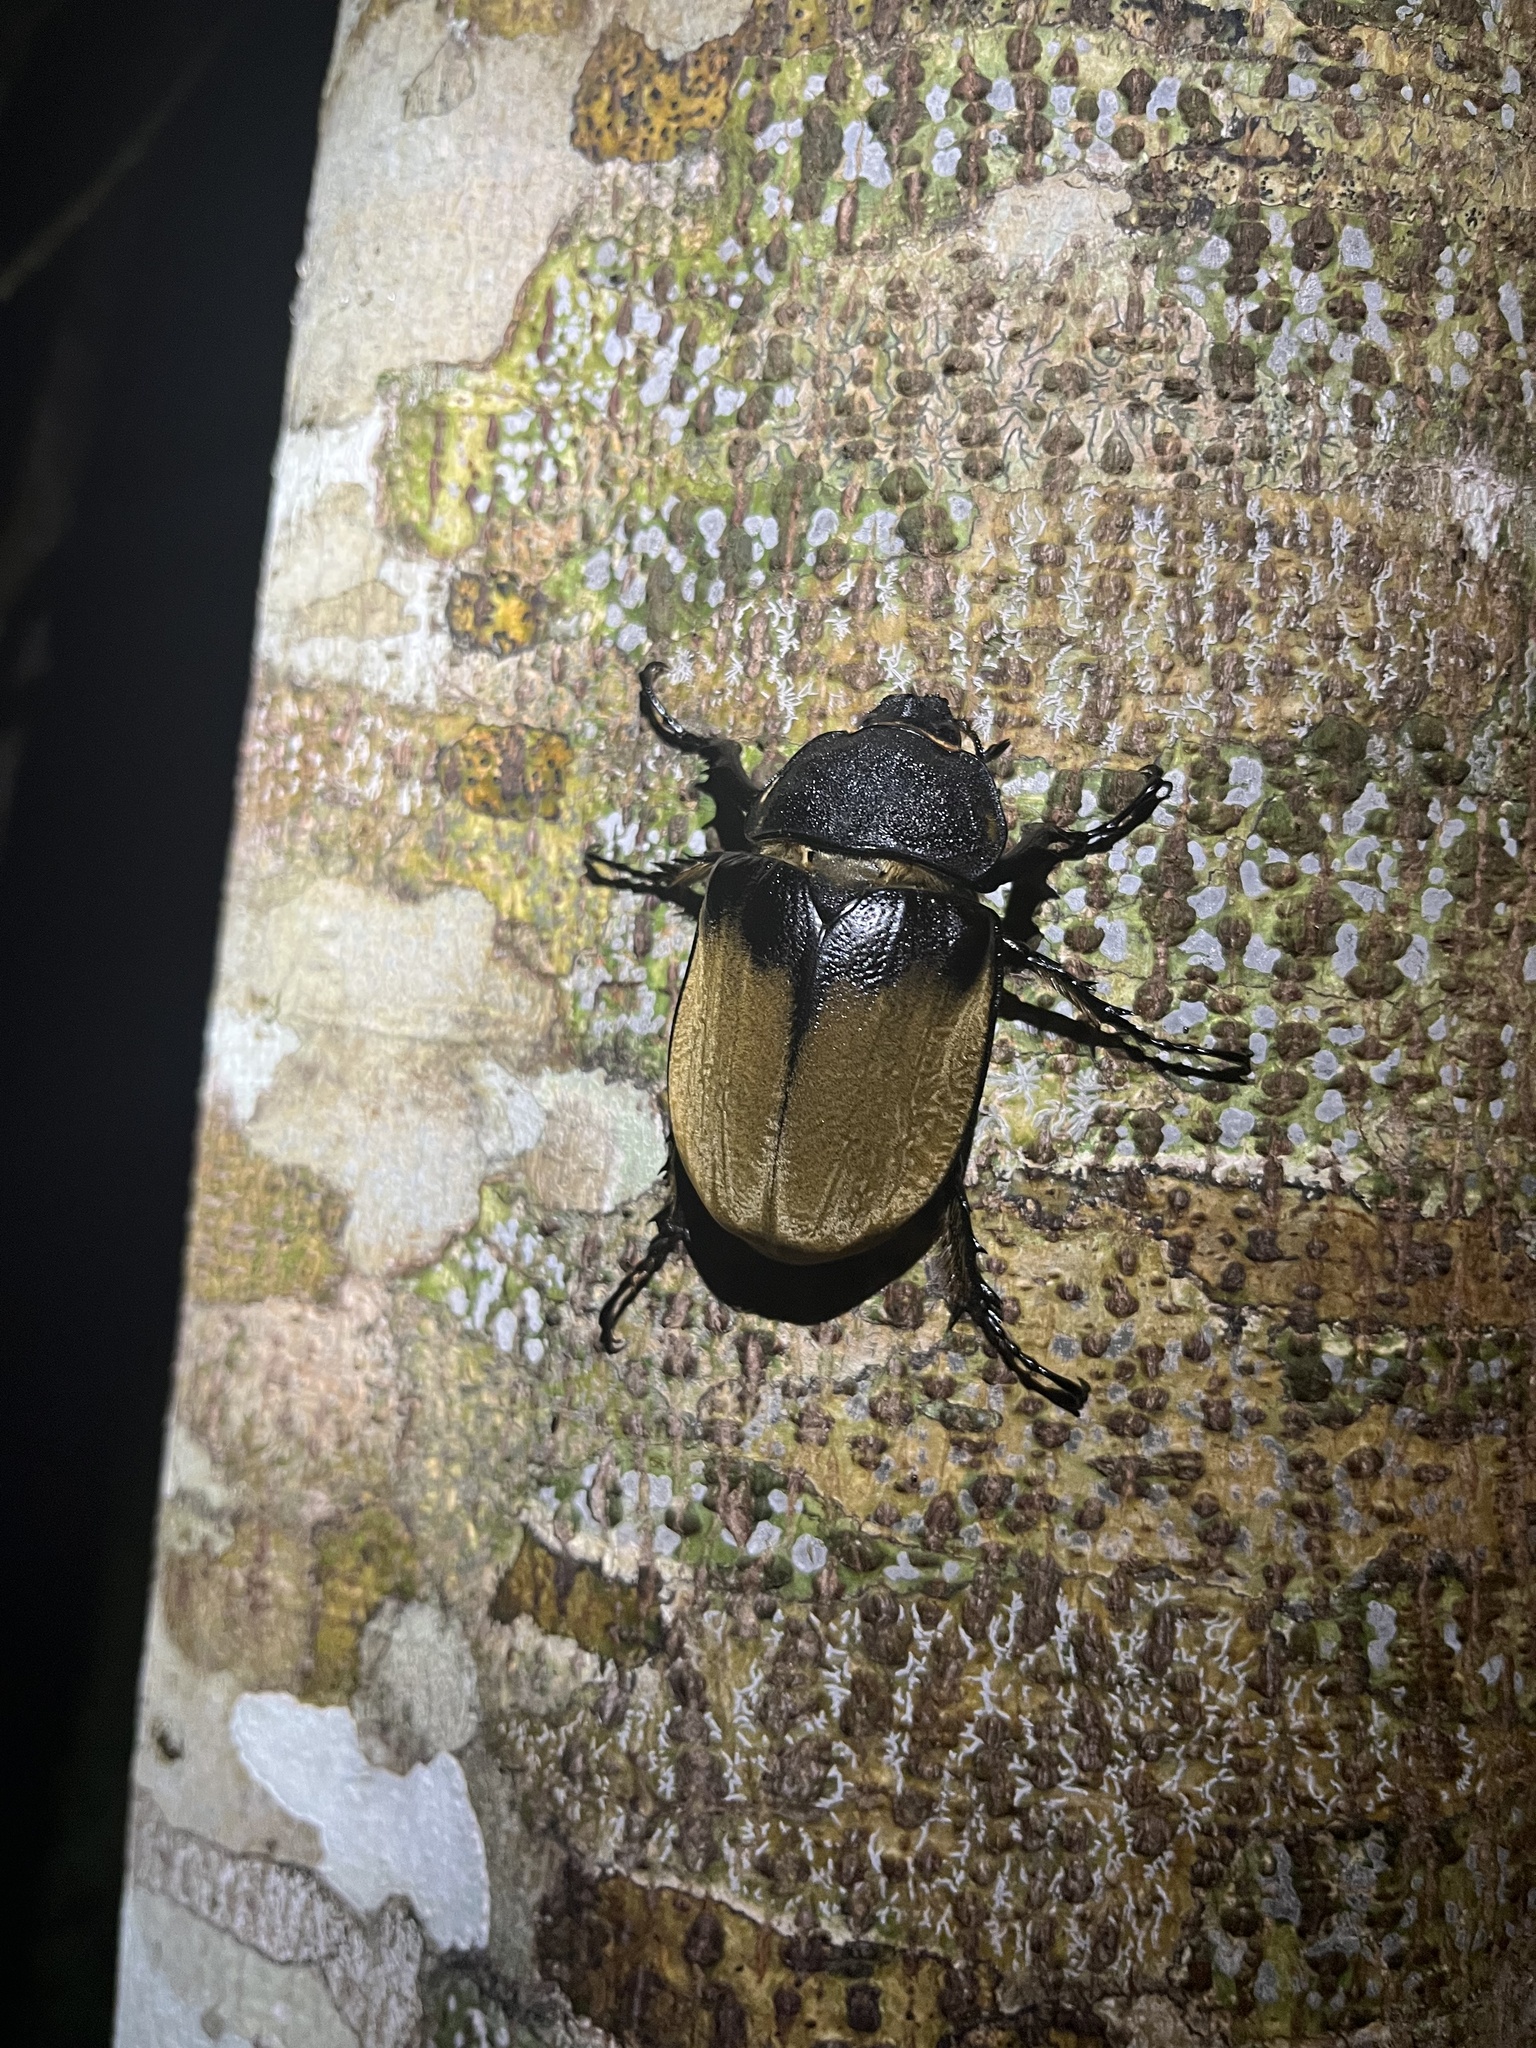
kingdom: Animalia
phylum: Arthropoda
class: Insecta
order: Coleoptera
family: Scarabaeidae
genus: Megasoma
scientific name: Megasoma elephas
